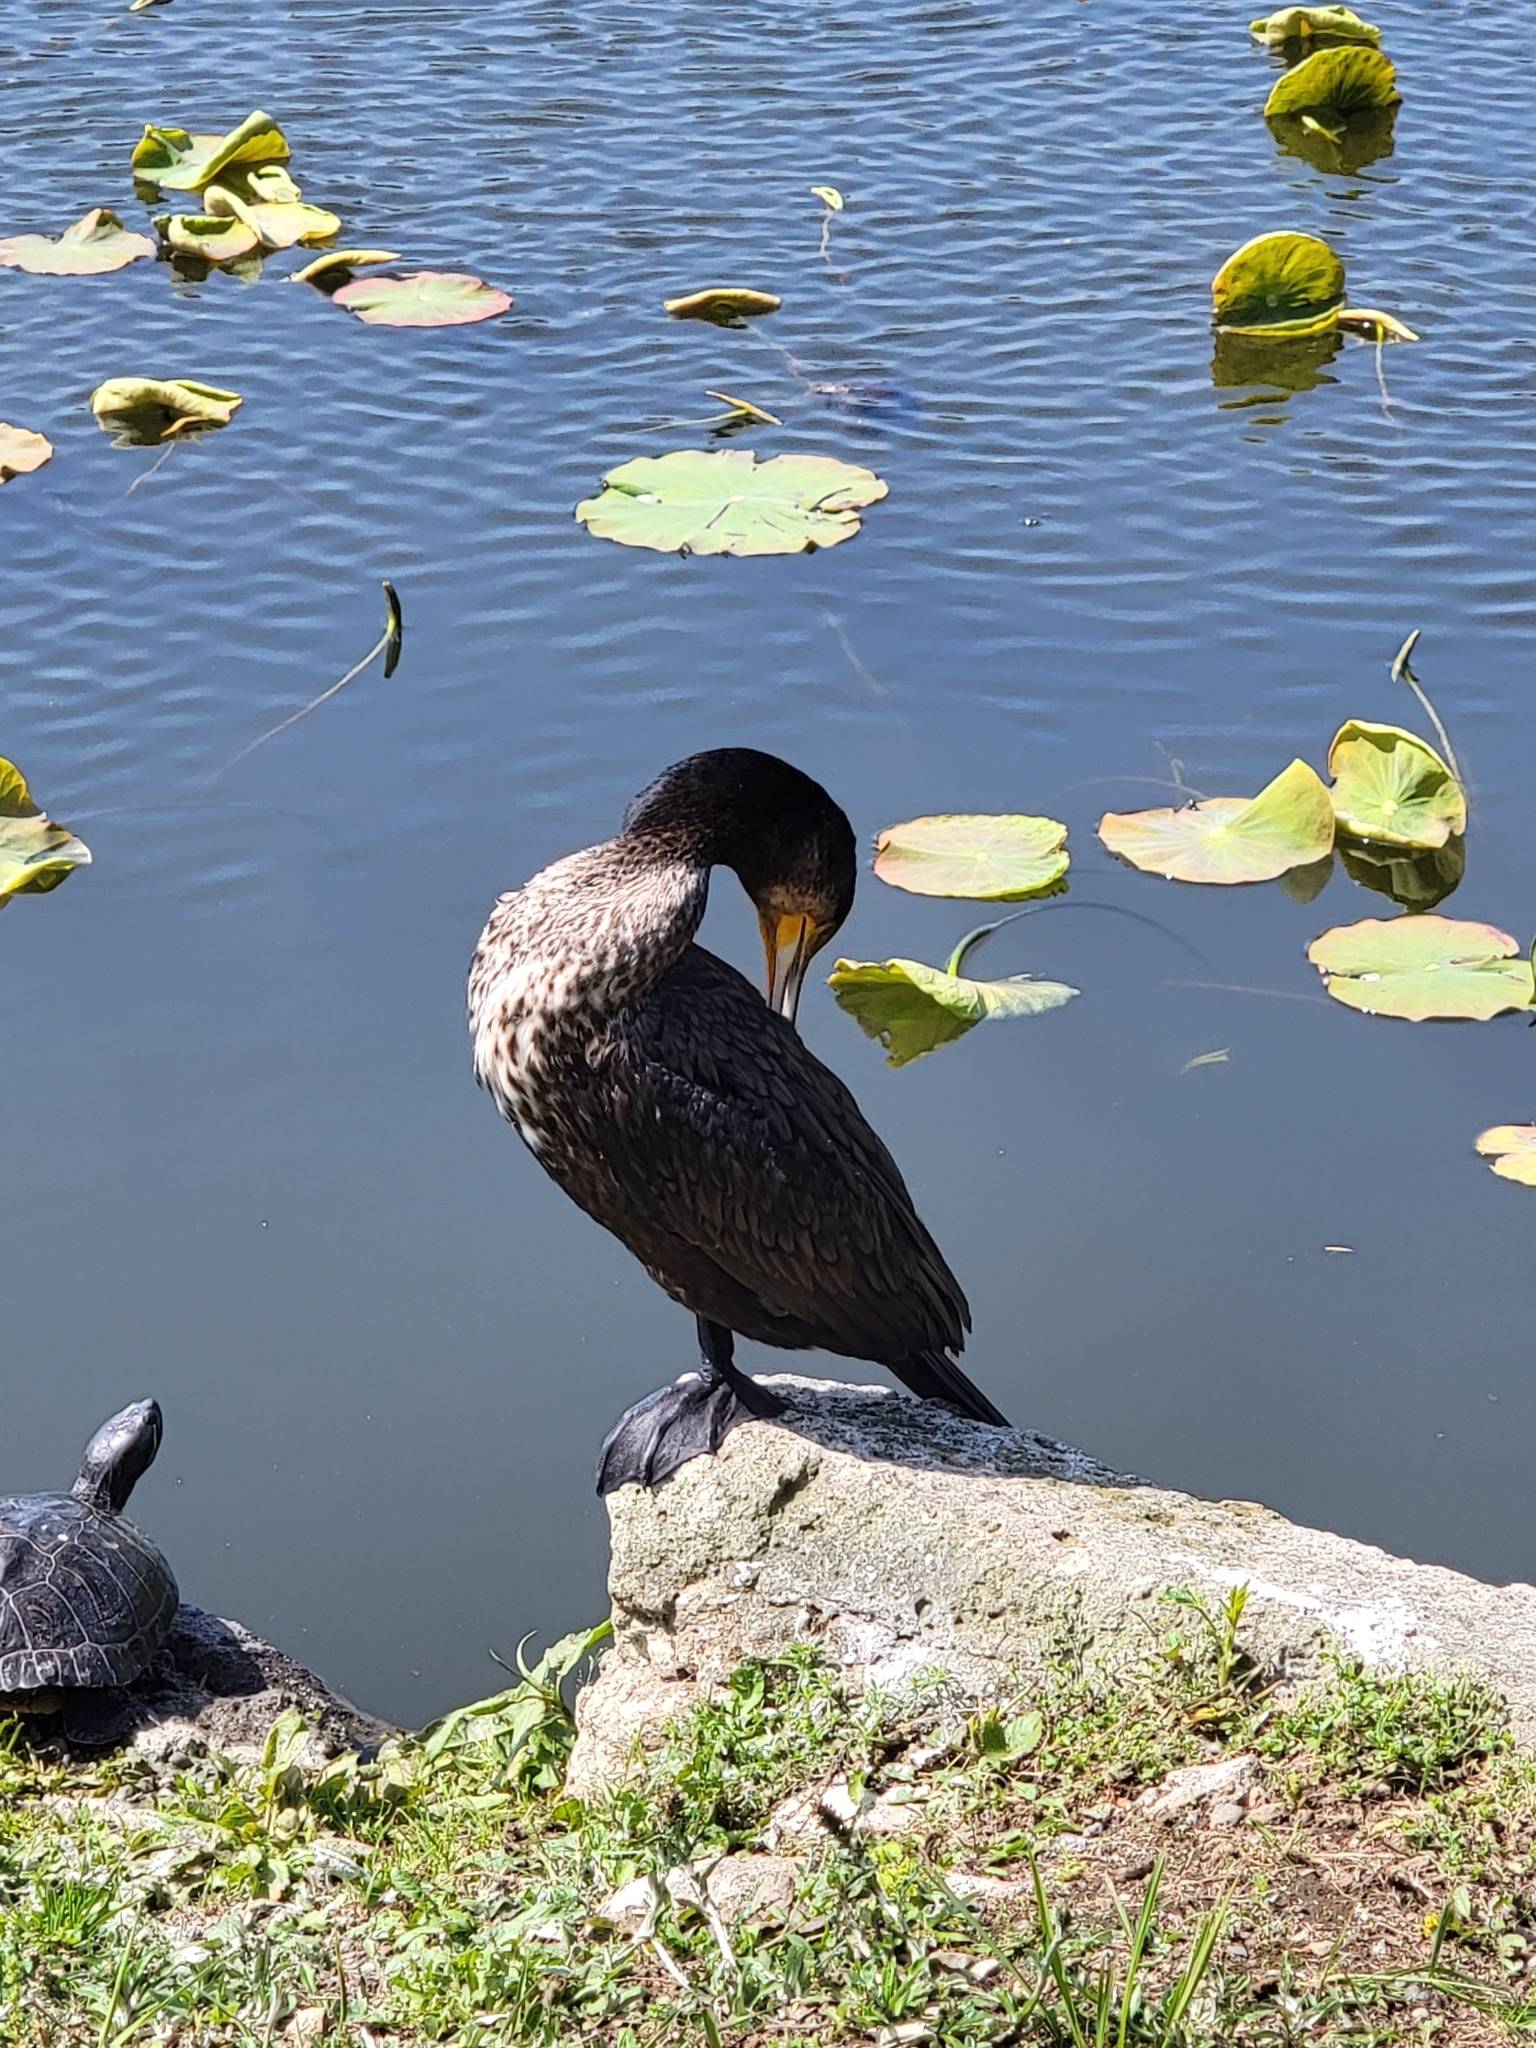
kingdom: Animalia
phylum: Chordata
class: Aves
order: Suliformes
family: Phalacrocoracidae
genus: Phalacrocorax
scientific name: Phalacrocorax carbo
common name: Great cormorant
